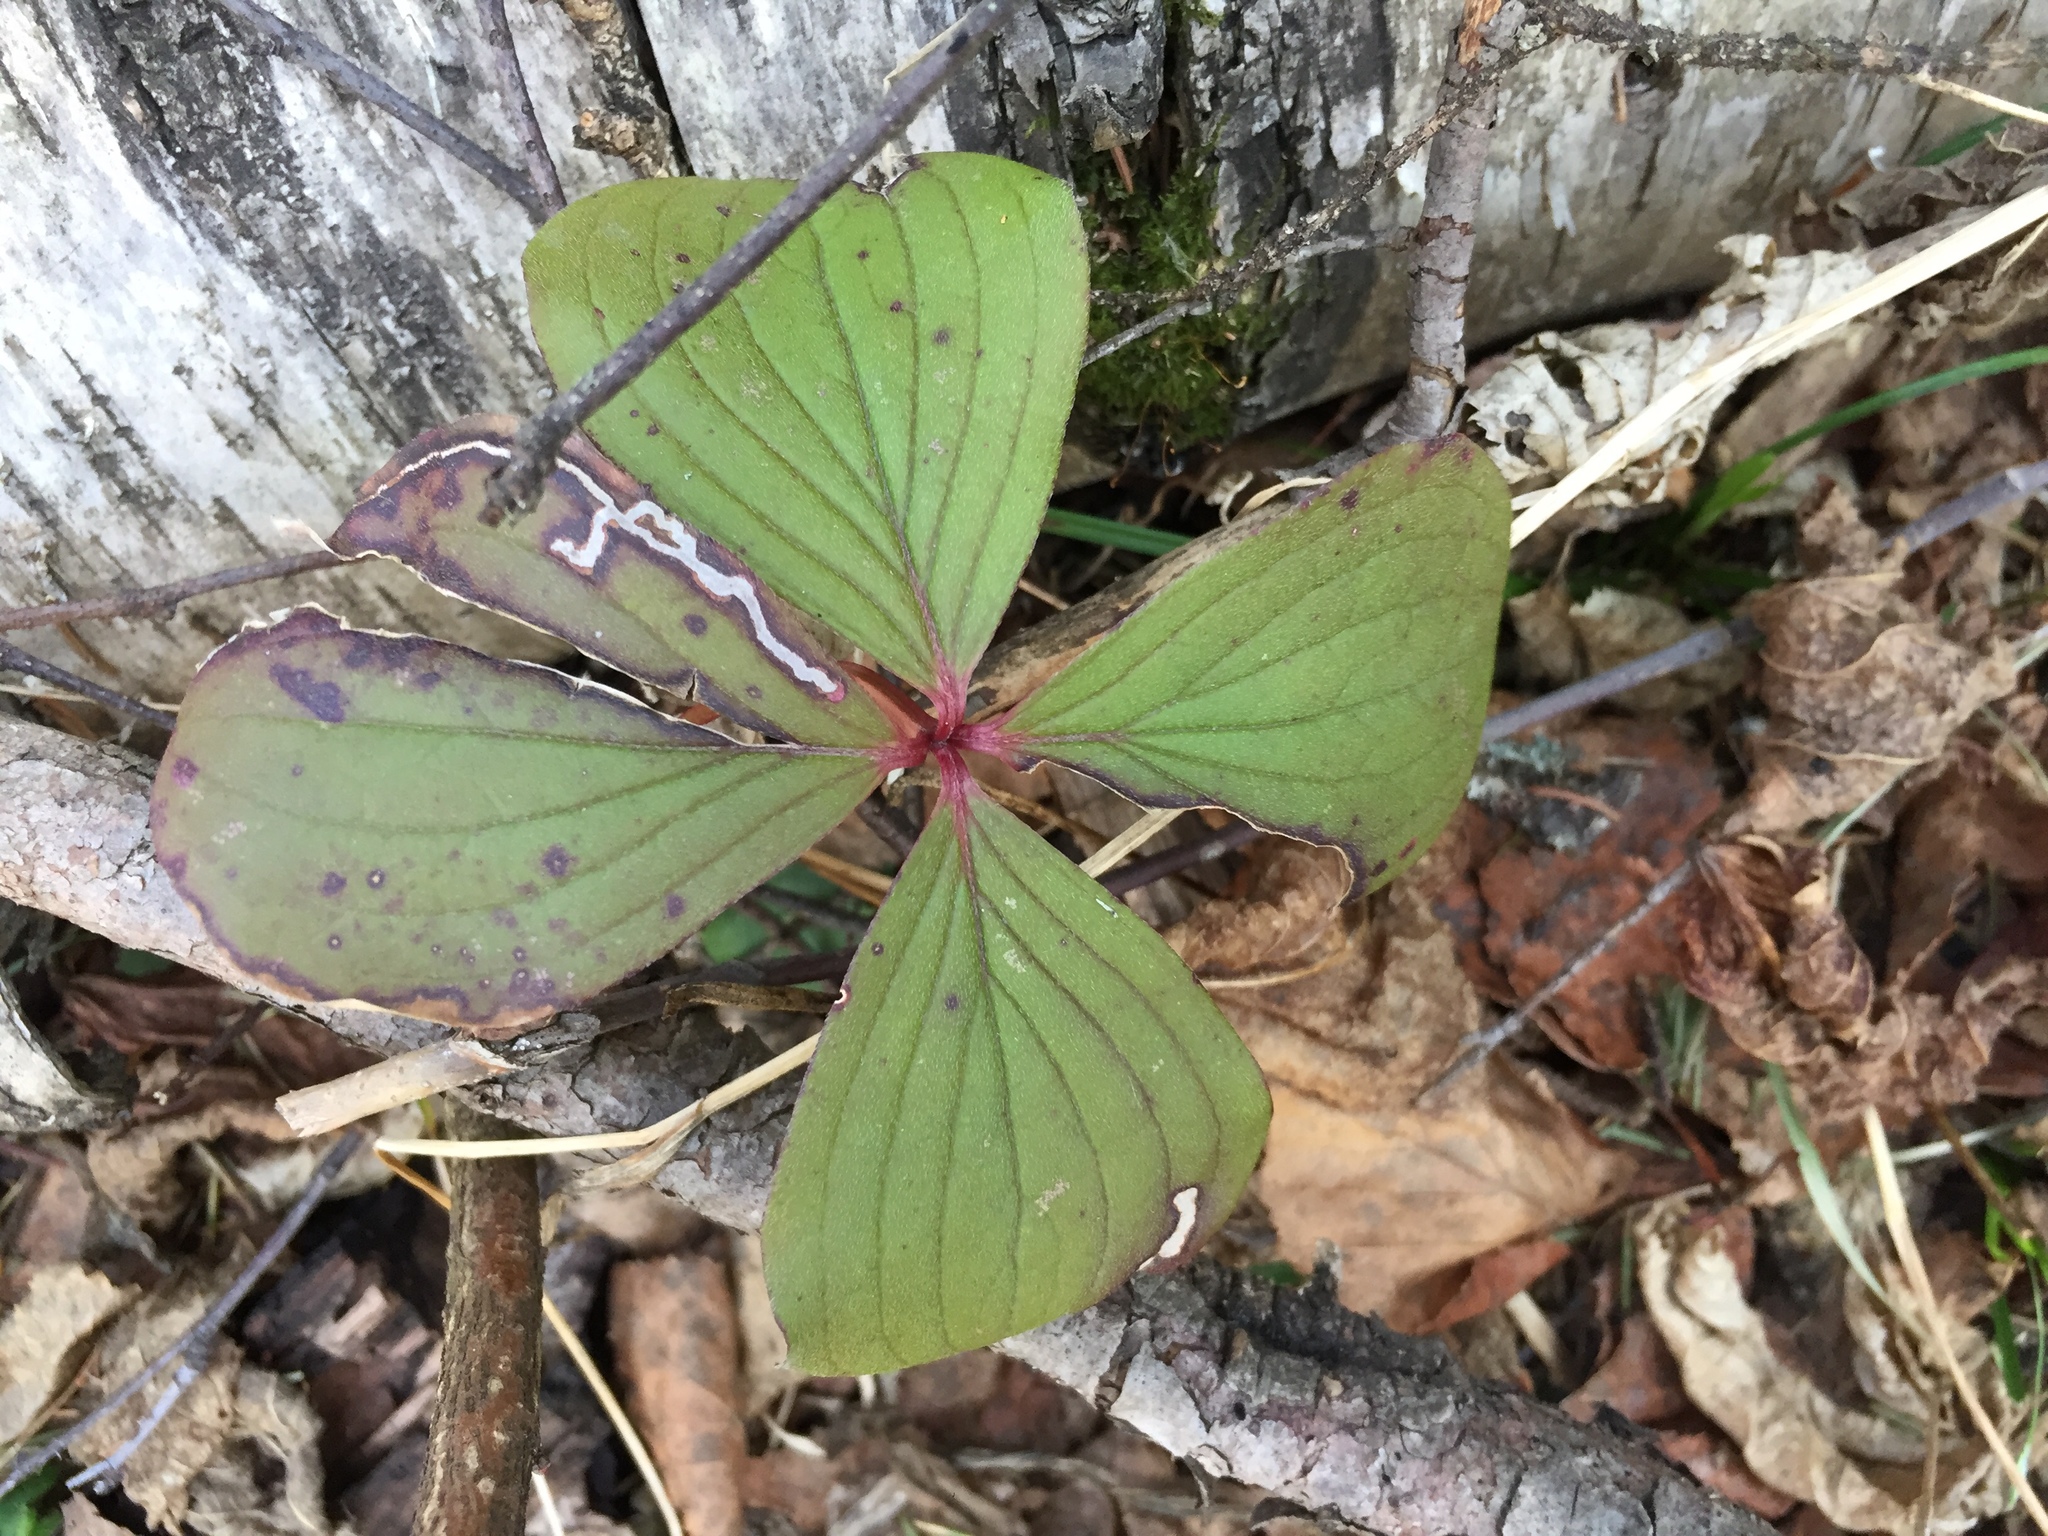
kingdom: Plantae
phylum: Tracheophyta
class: Magnoliopsida
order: Cornales
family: Cornaceae
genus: Cornus
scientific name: Cornus canadensis
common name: Creeping dogwood
